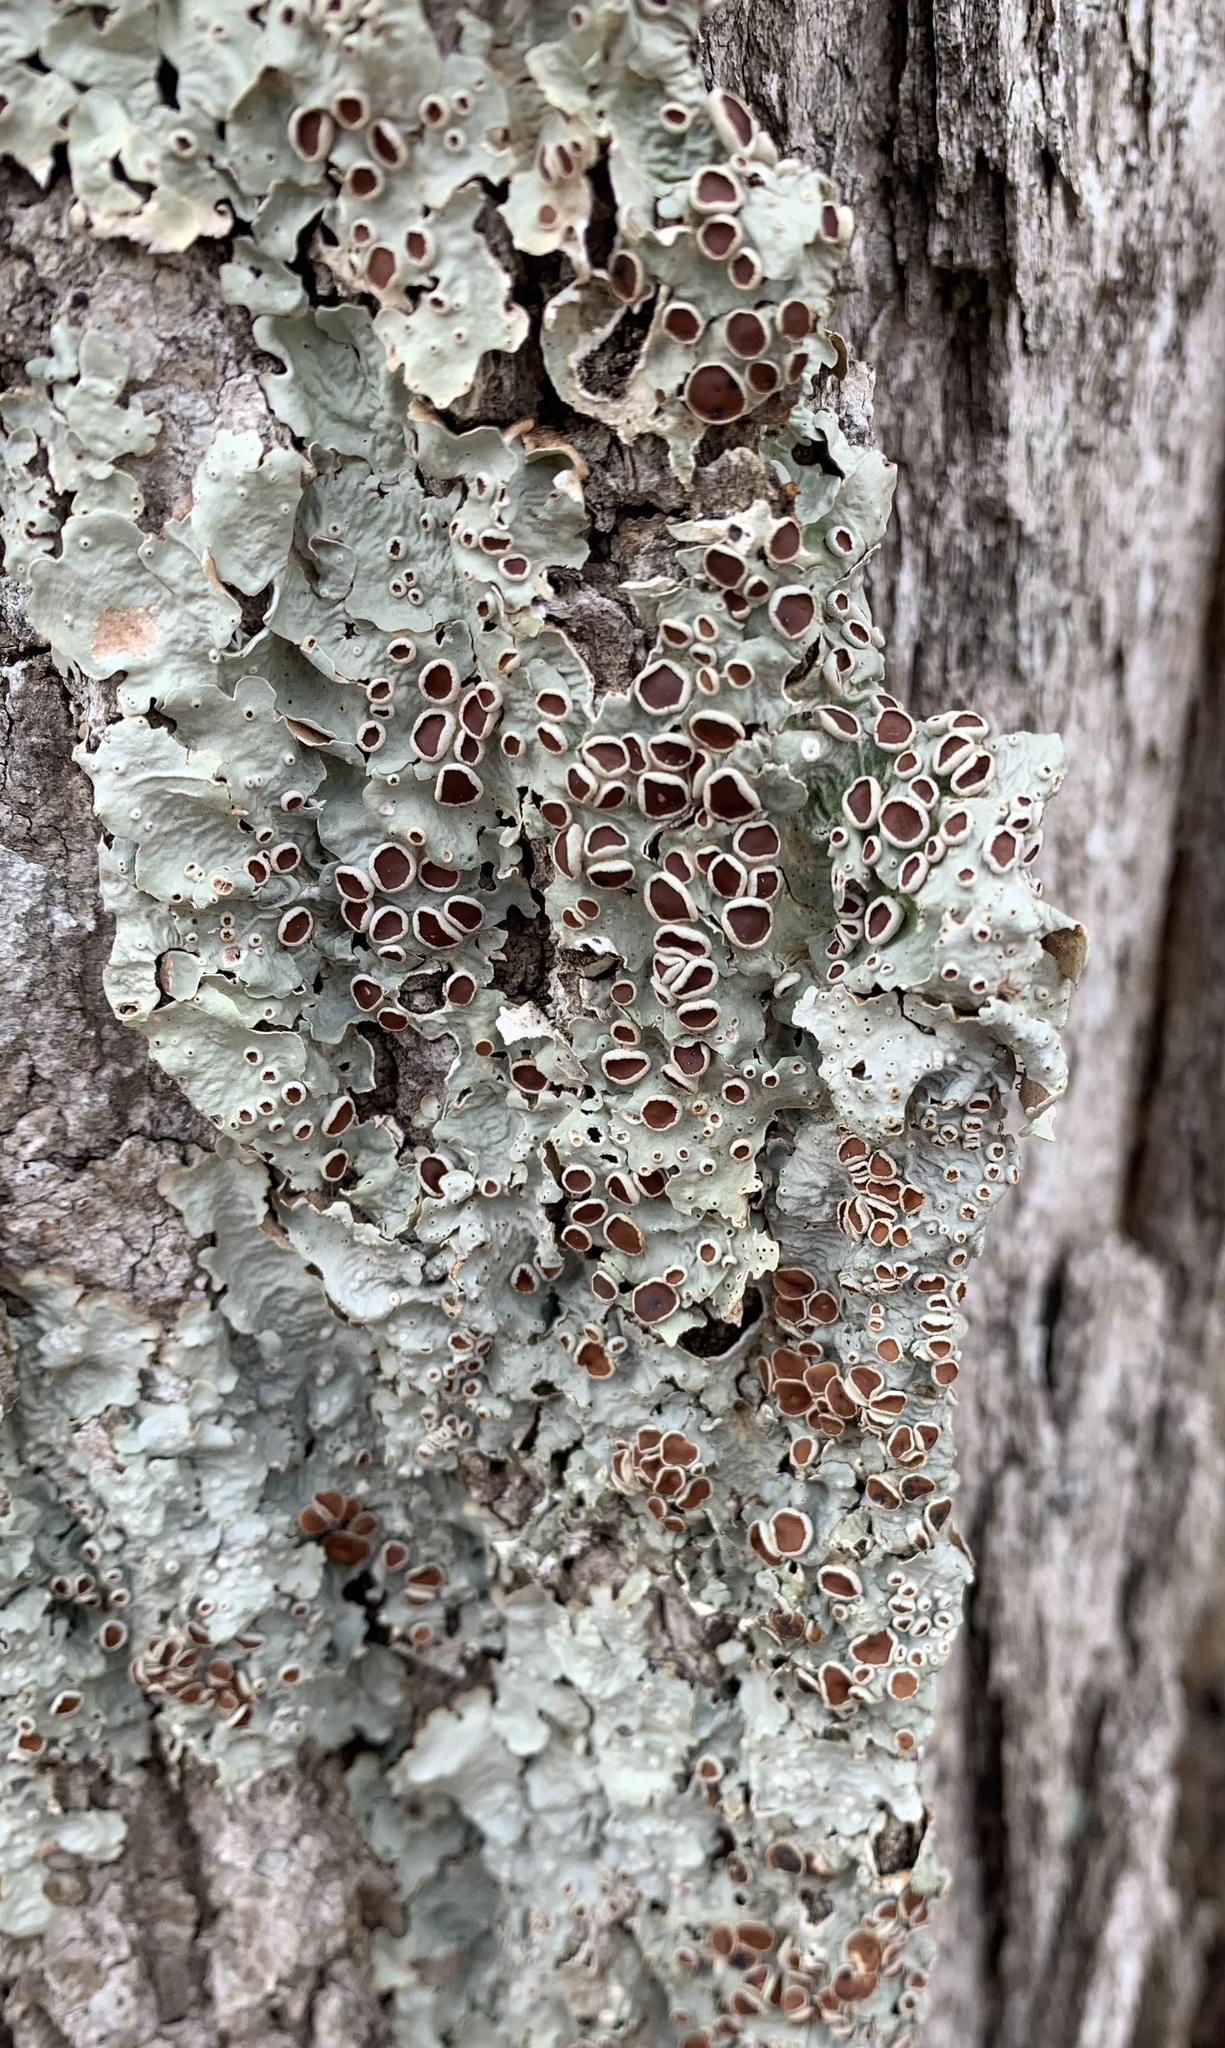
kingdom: Fungi
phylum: Ascomycota
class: Lecanoromycetes
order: Peltigerales
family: Lobariaceae
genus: Ricasolia
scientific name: Ricasolia quercizans
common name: Smooth lungwort
